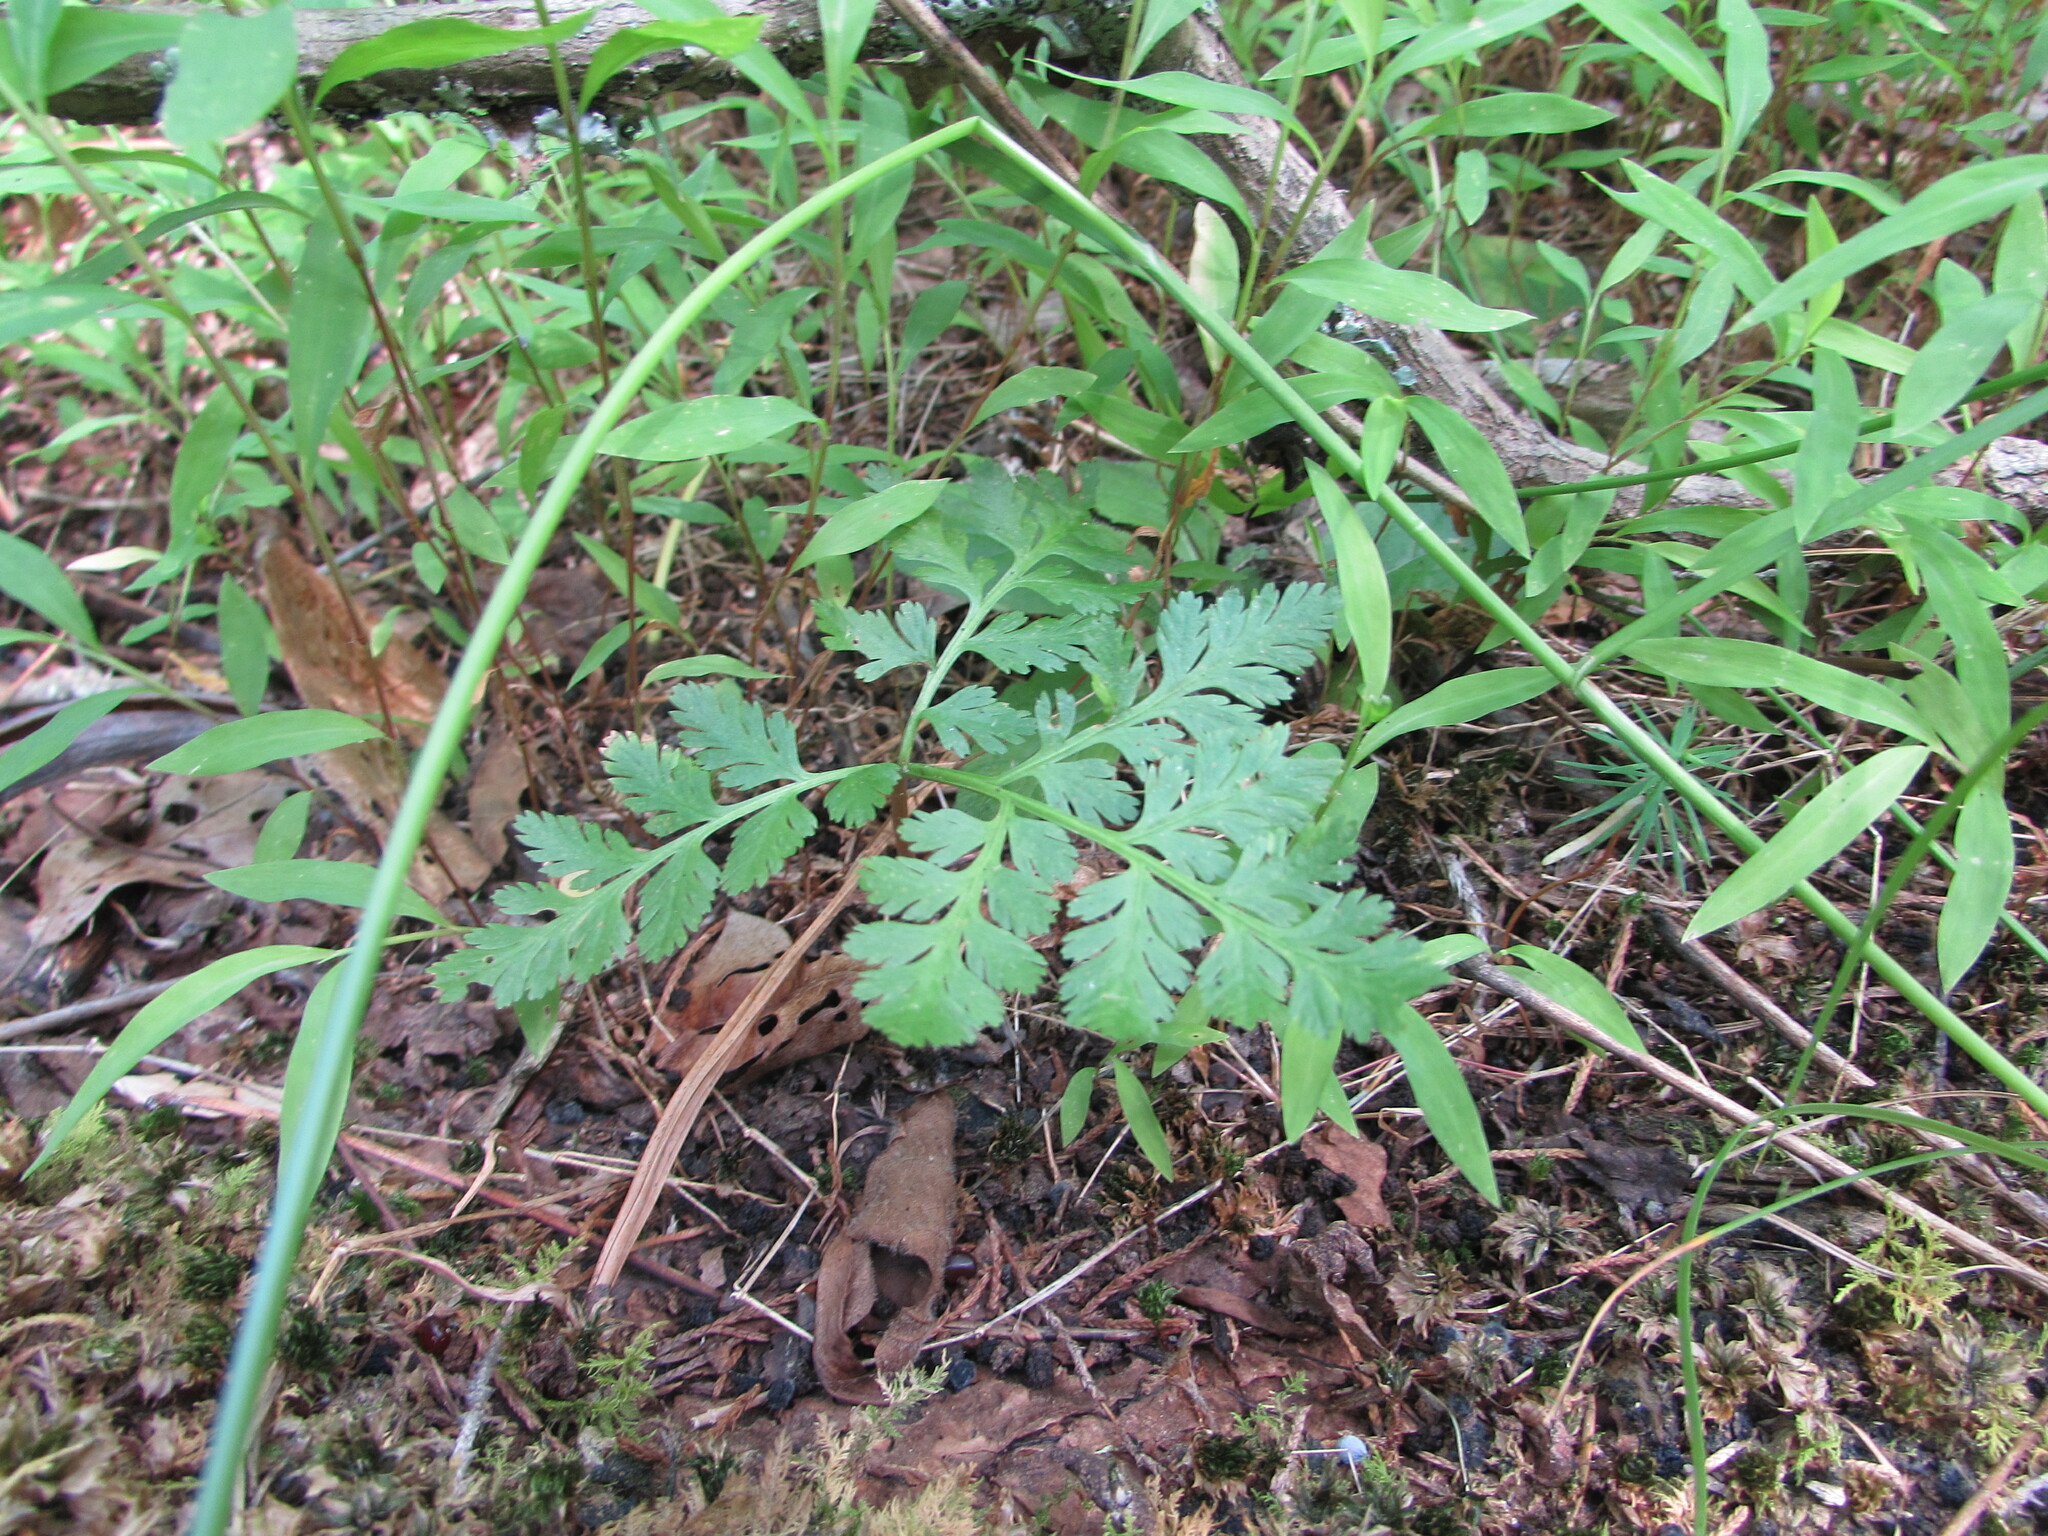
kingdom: Plantae
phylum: Tracheophyta
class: Polypodiopsida
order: Ophioglossales
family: Ophioglossaceae
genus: Botrypus
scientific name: Botrypus virginianus
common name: Common grapefern
